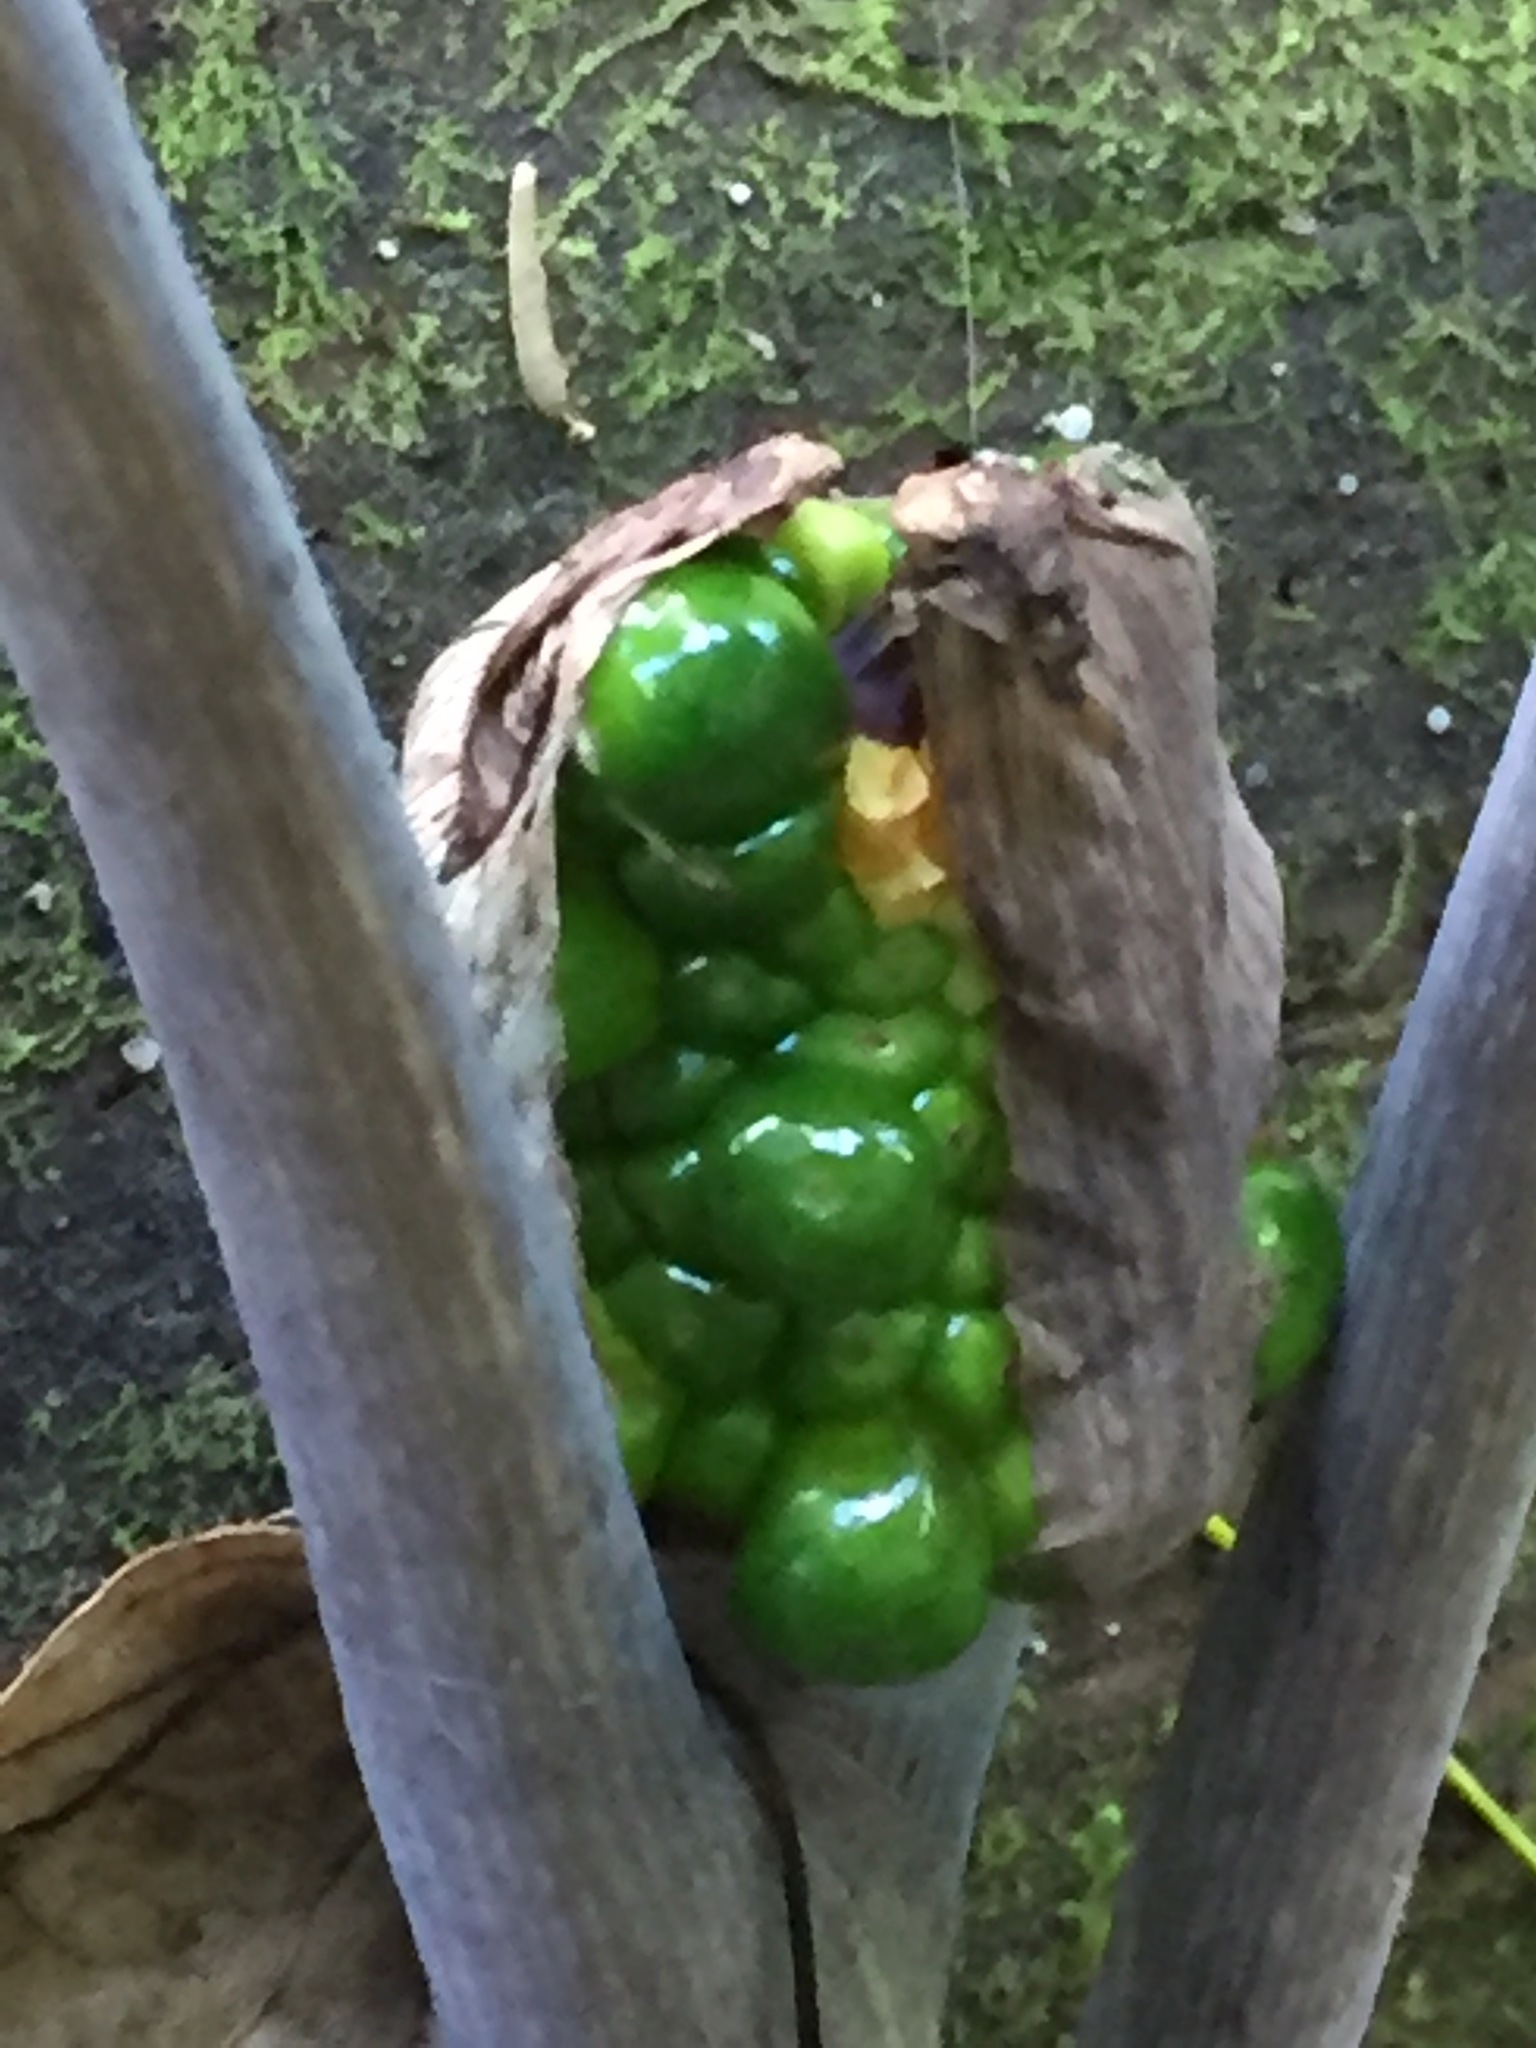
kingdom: Plantae
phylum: Tracheophyta
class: Liliopsida
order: Alismatales
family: Araceae
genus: Arisaema
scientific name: Arisaema triphyllum
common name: Jack-in-the-pulpit
